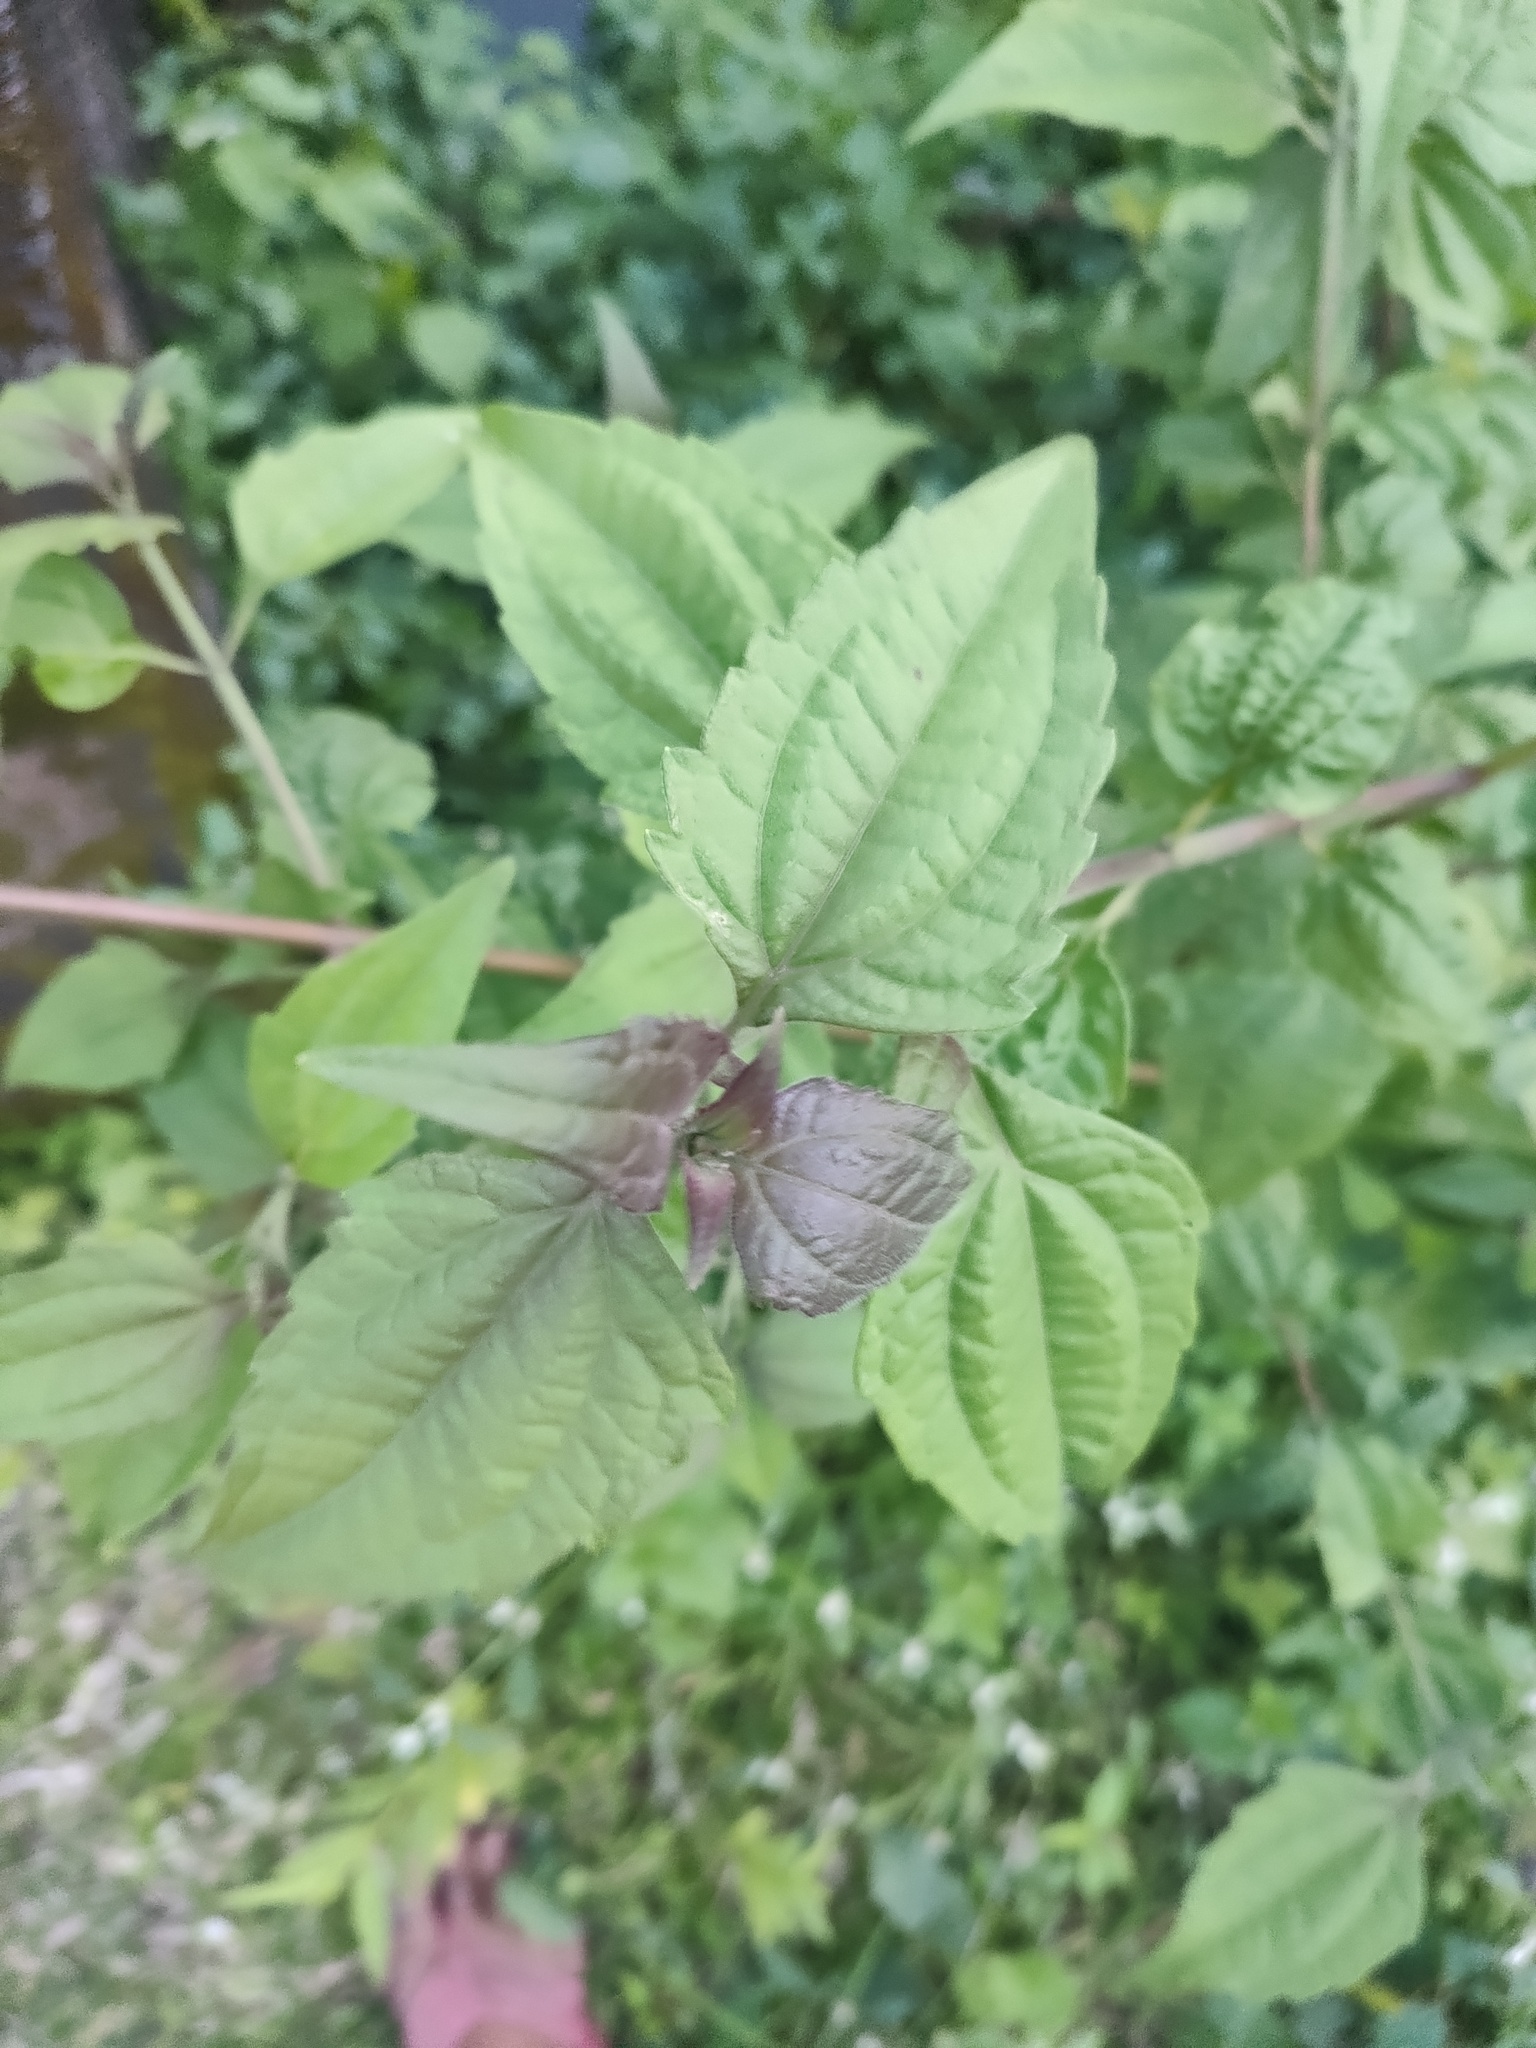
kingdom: Plantae
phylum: Tracheophyta
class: Magnoliopsida
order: Asterales
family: Asteraceae
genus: Chromolaena
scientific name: Chromolaena odorata
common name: Siamweed
